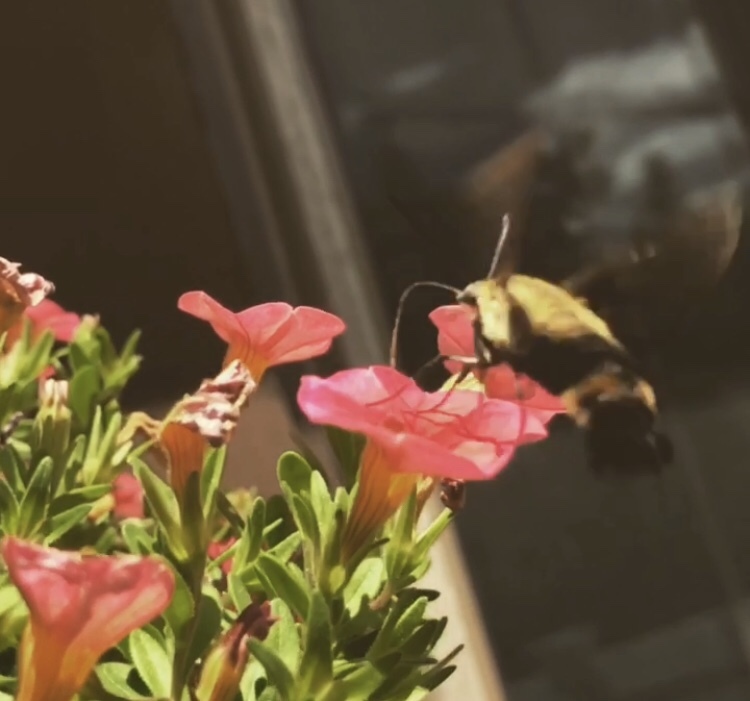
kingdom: Animalia
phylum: Arthropoda
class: Insecta
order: Lepidoptera
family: Sphingidae
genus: Hemaris
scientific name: Hemaris diffinis
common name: Bumblebee moth
